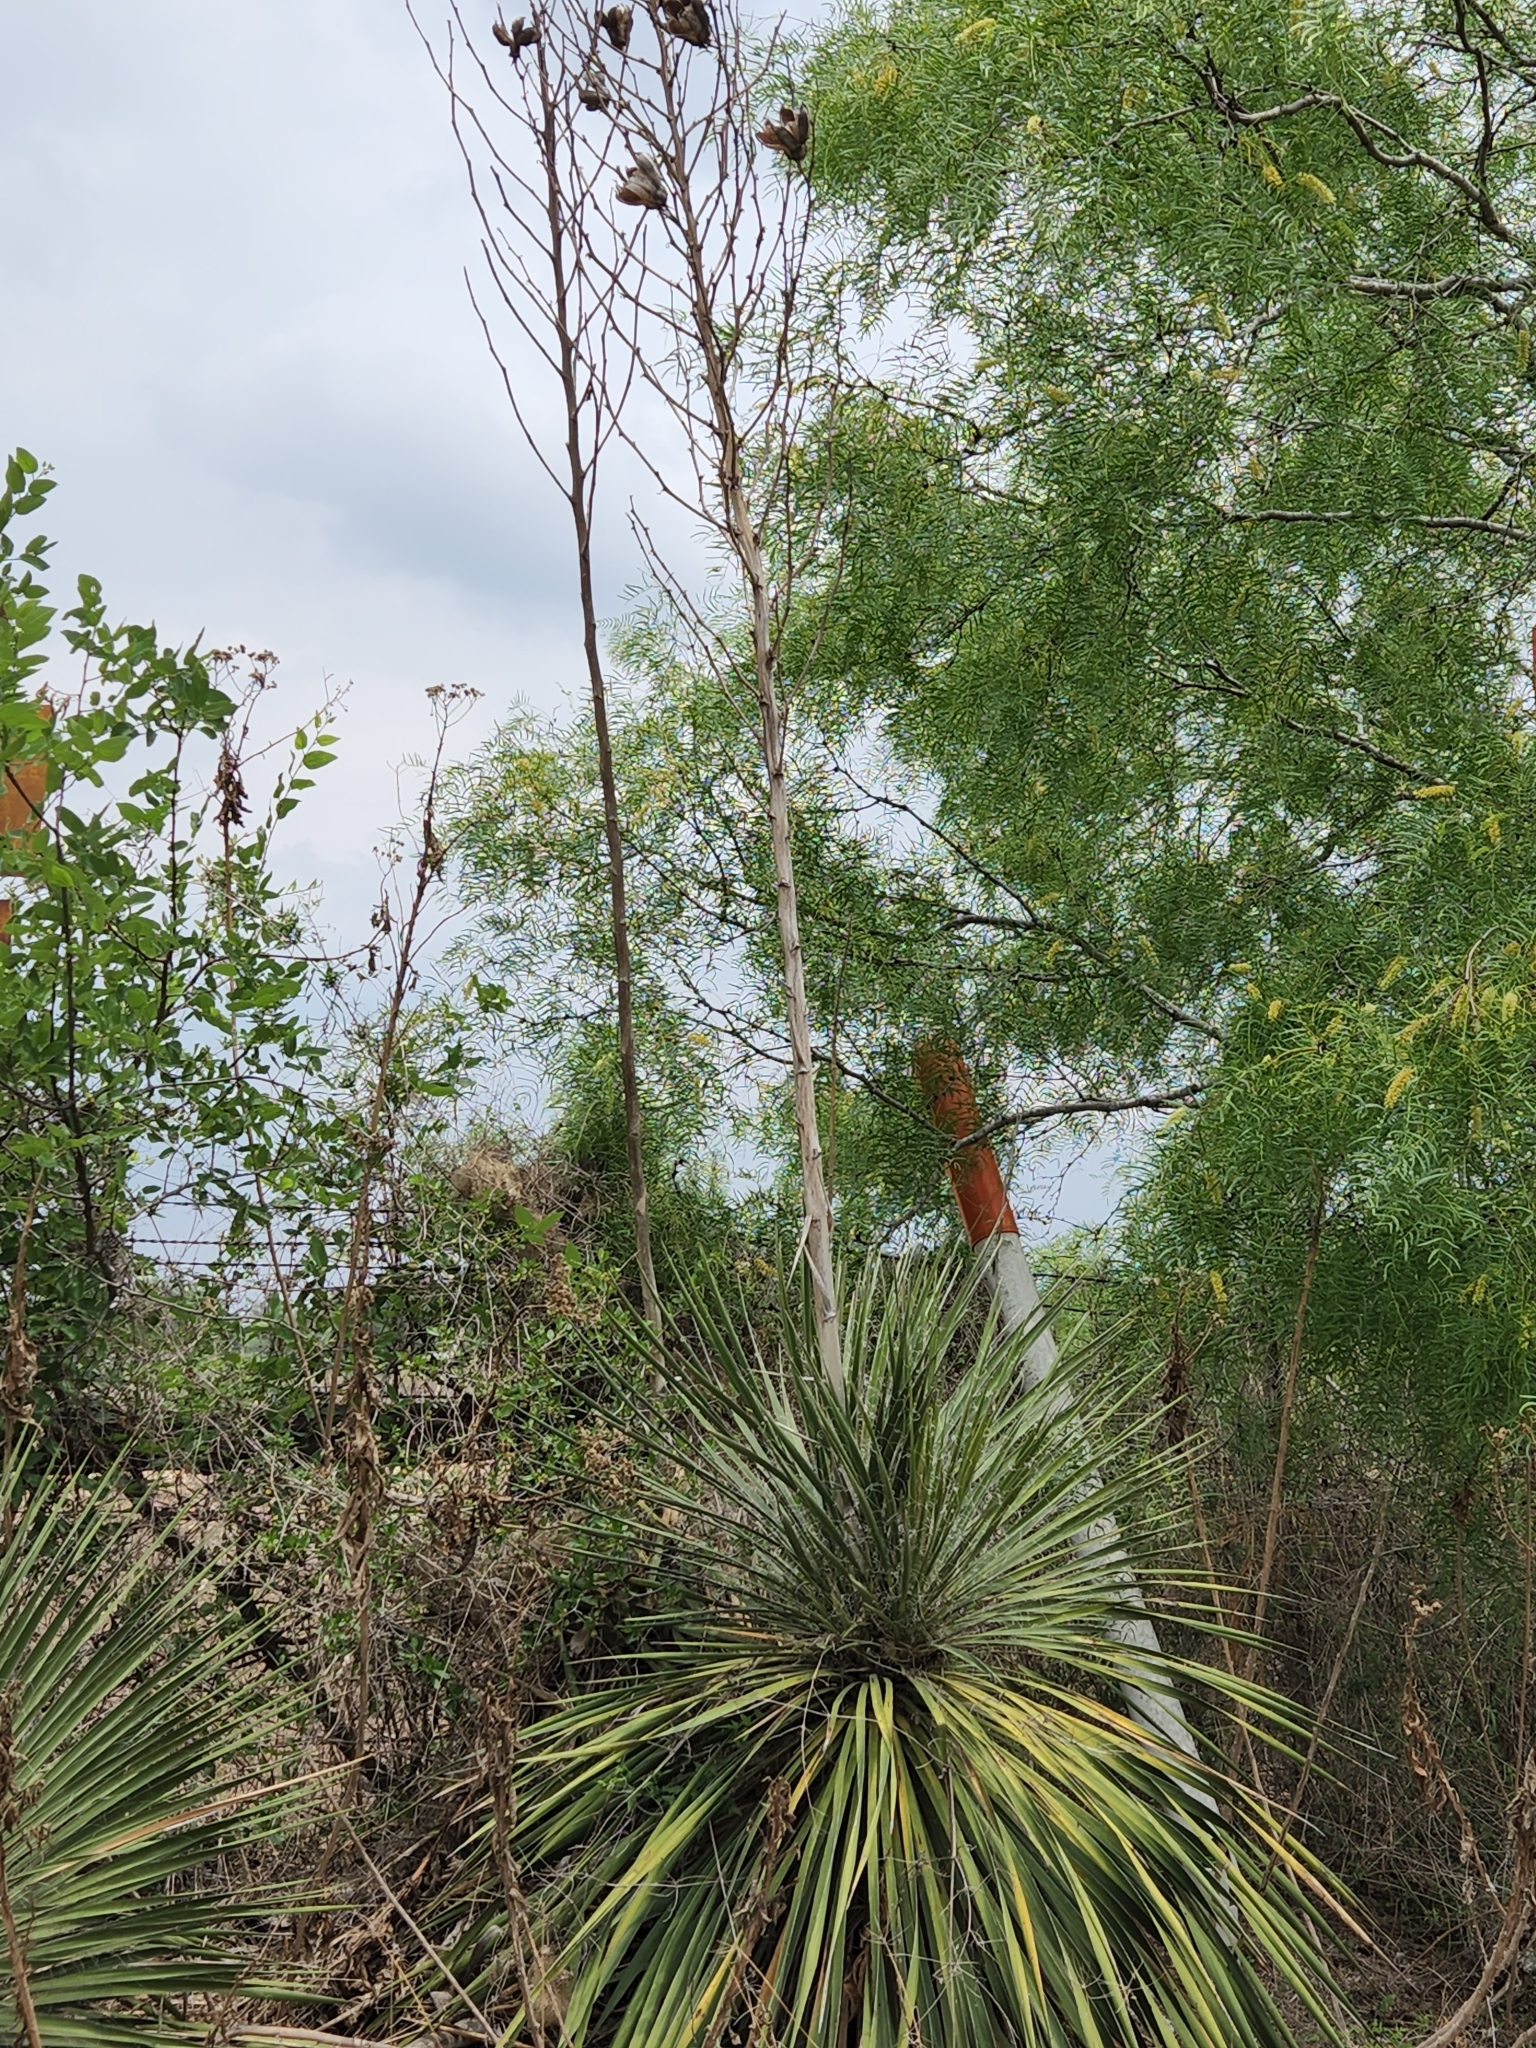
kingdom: Plantae
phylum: Tracheophyta
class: Liliopsida
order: Asparagales
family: Asparagaceae
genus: Yucca
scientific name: Yucca constricta
